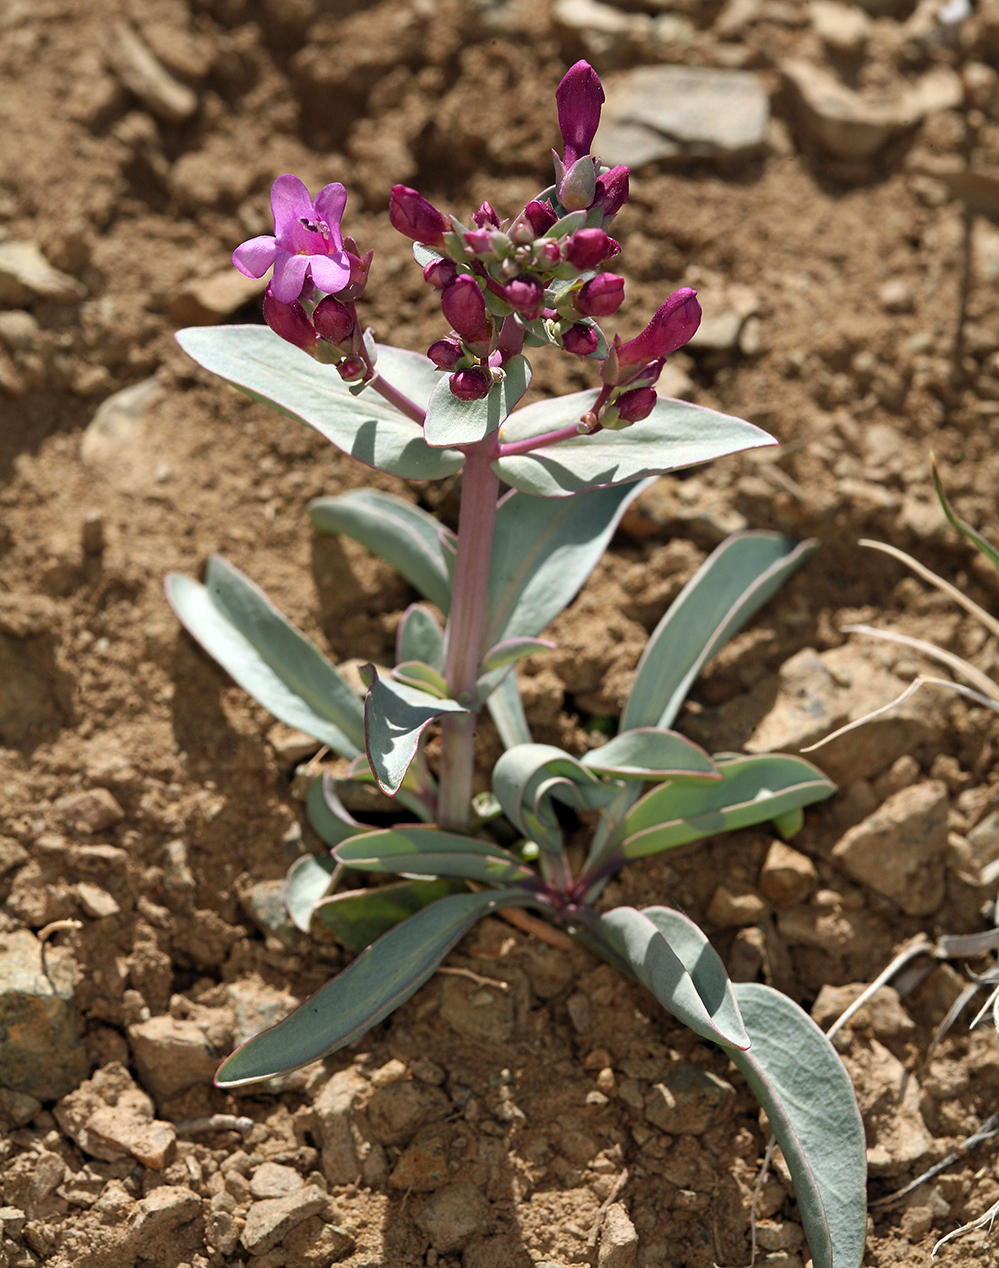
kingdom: Plantae
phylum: Tracheophyta
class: Magnoliopsida
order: Lamiales
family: Plantaginaceae
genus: Penstemon
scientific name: Penstemon patens
